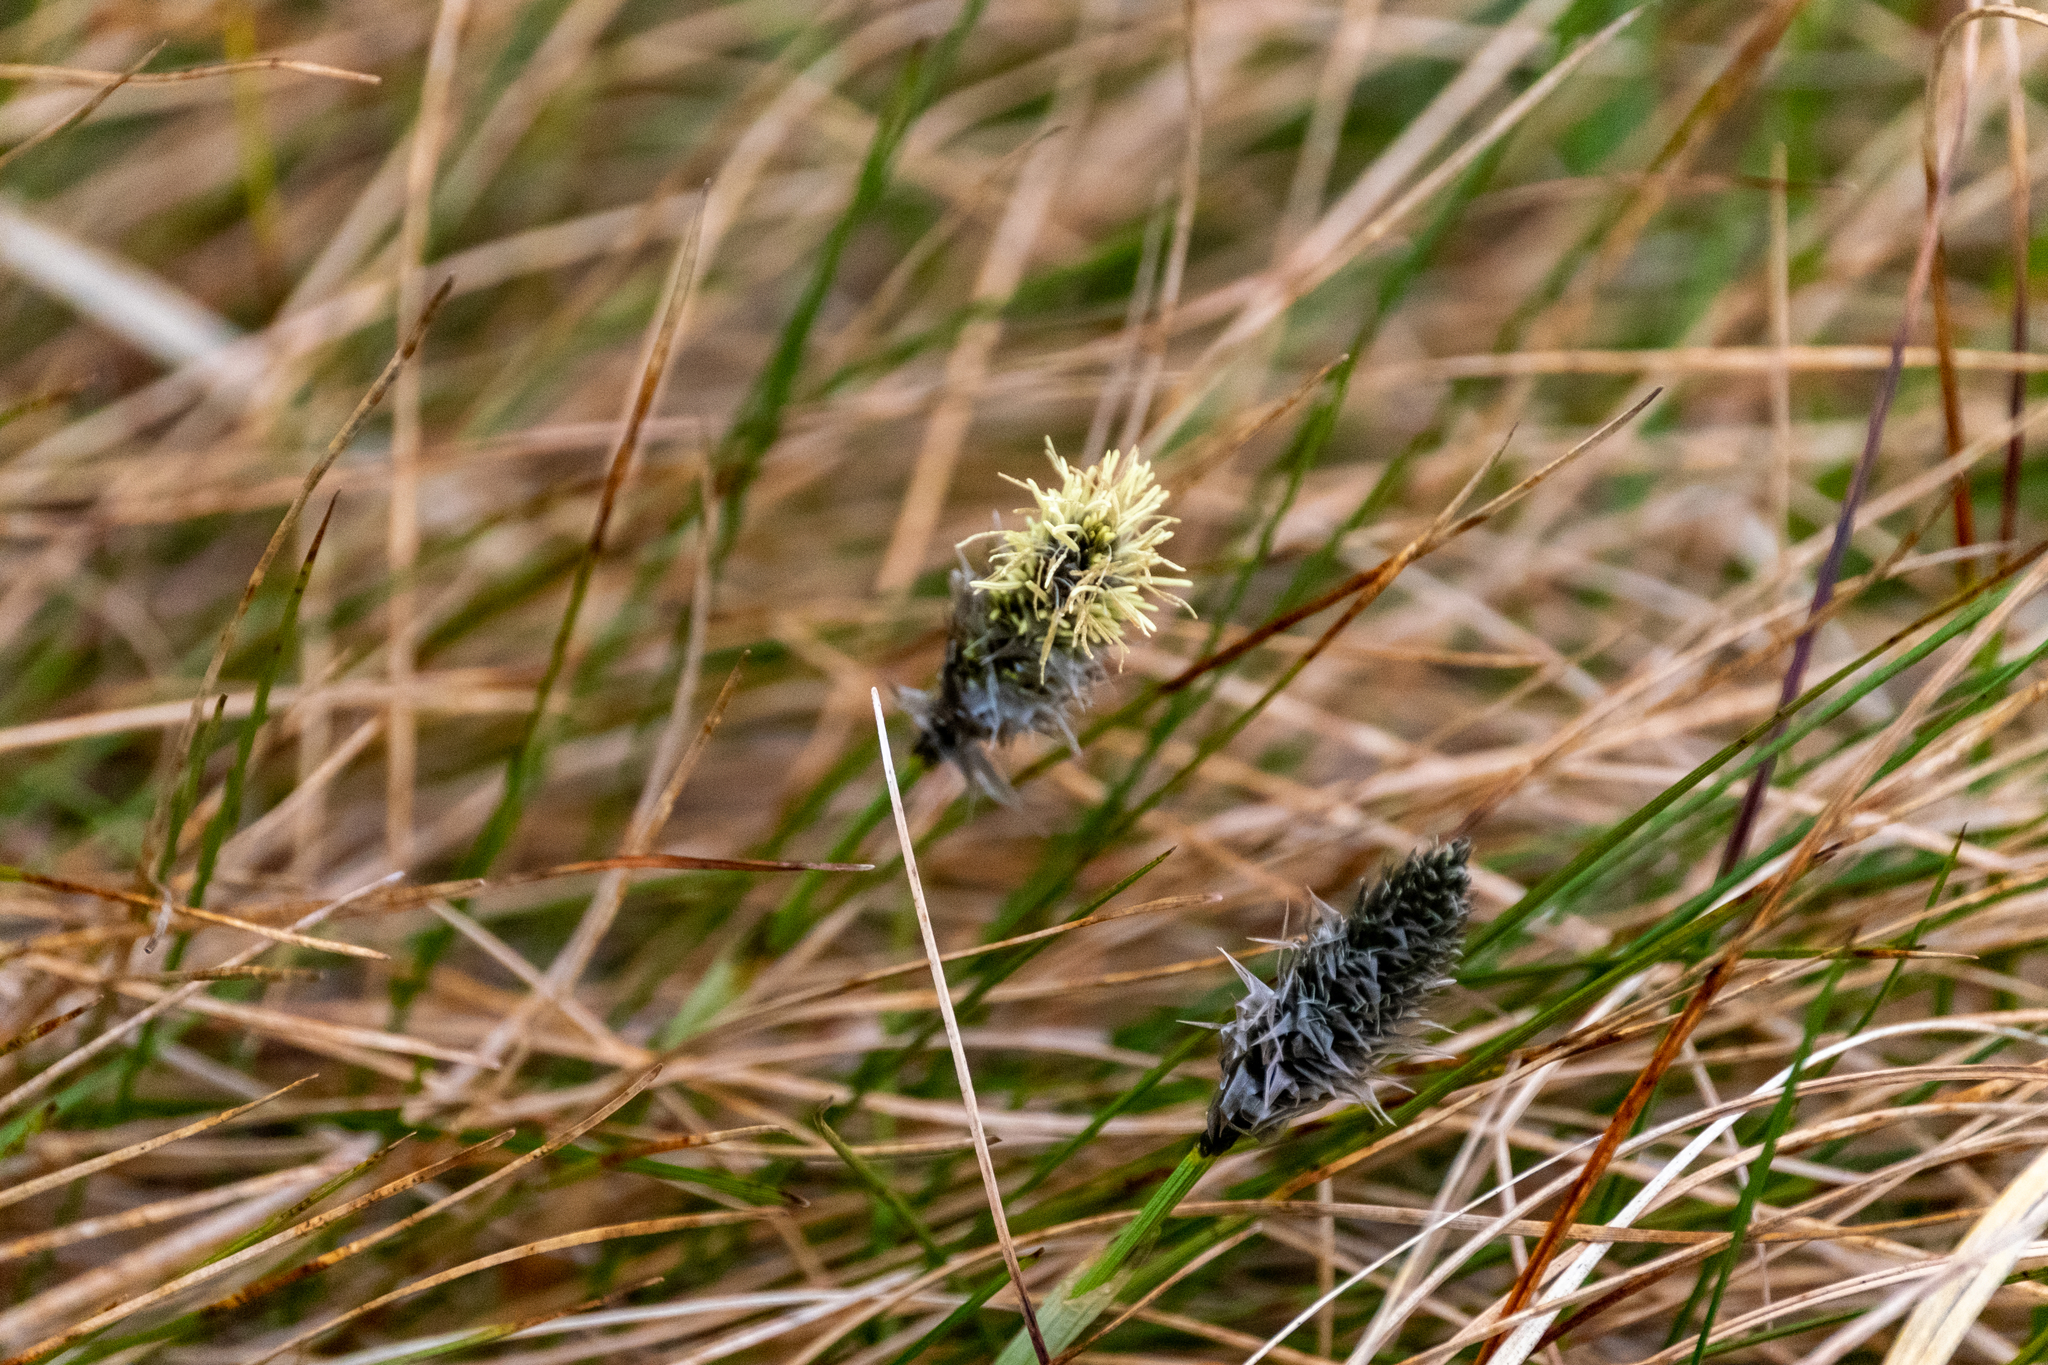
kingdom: Plantae
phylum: Tracheophyta
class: Liliopsida
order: Poales
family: Cyperaceae
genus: Eriophorum
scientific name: Eriophorum vaginatum
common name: Hare's-tail cottongrass
